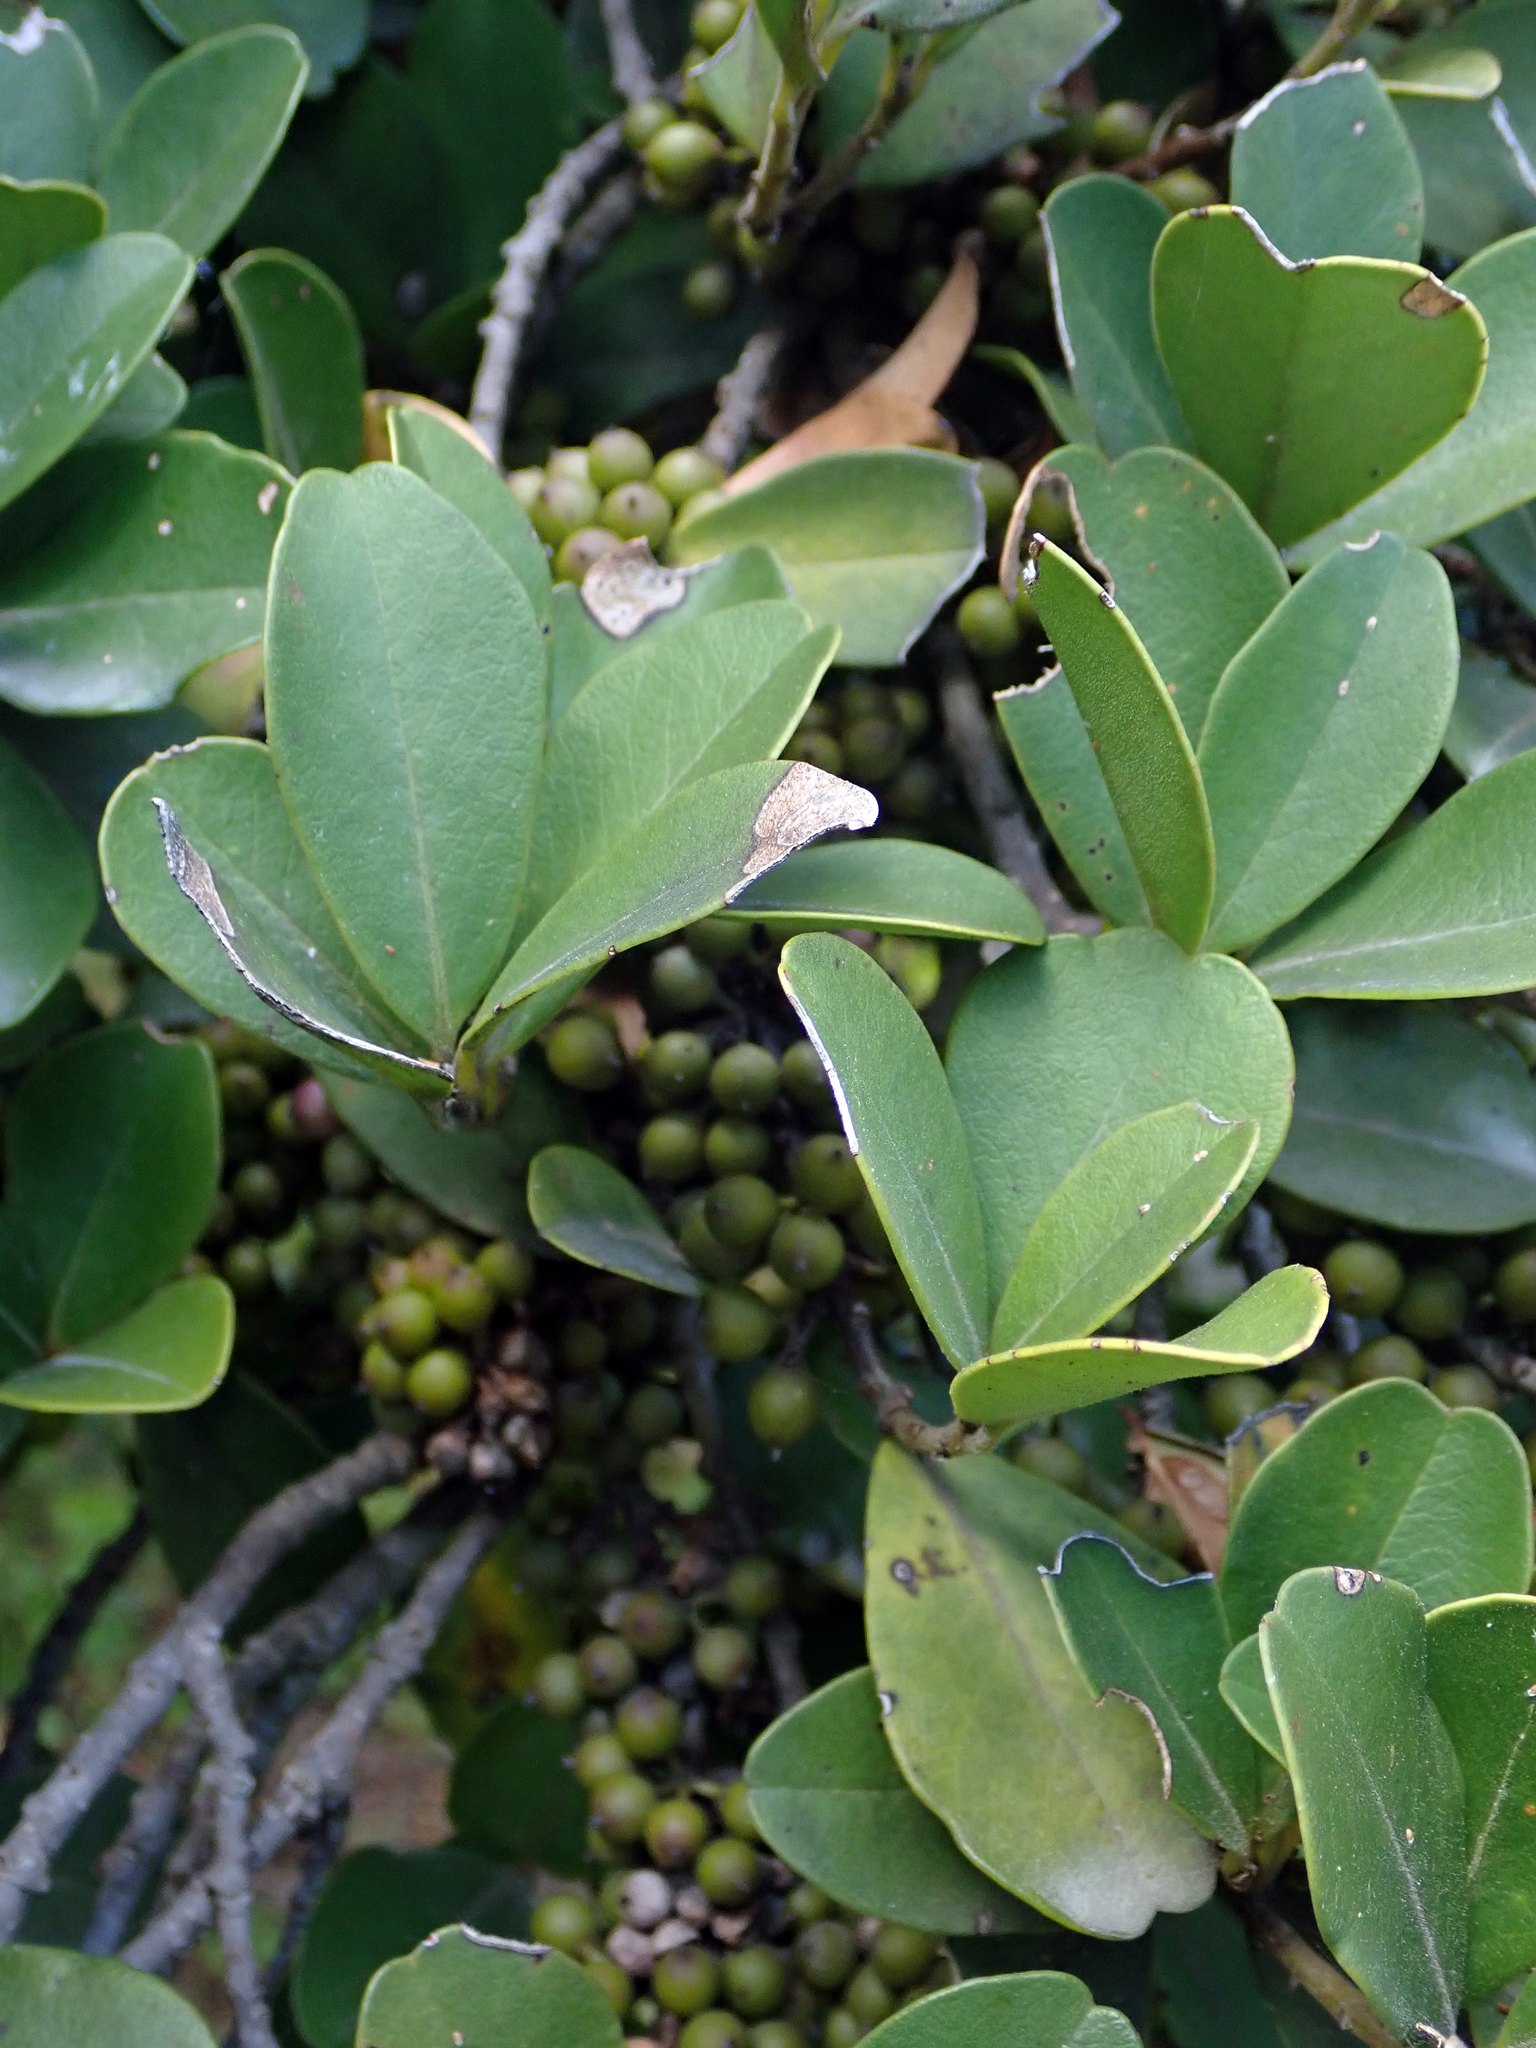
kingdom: Plantae
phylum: Tracheophyta
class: Magnoliopsida
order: Ericales
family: Primulaceae
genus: Myrsine
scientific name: Myrsine chathamica
